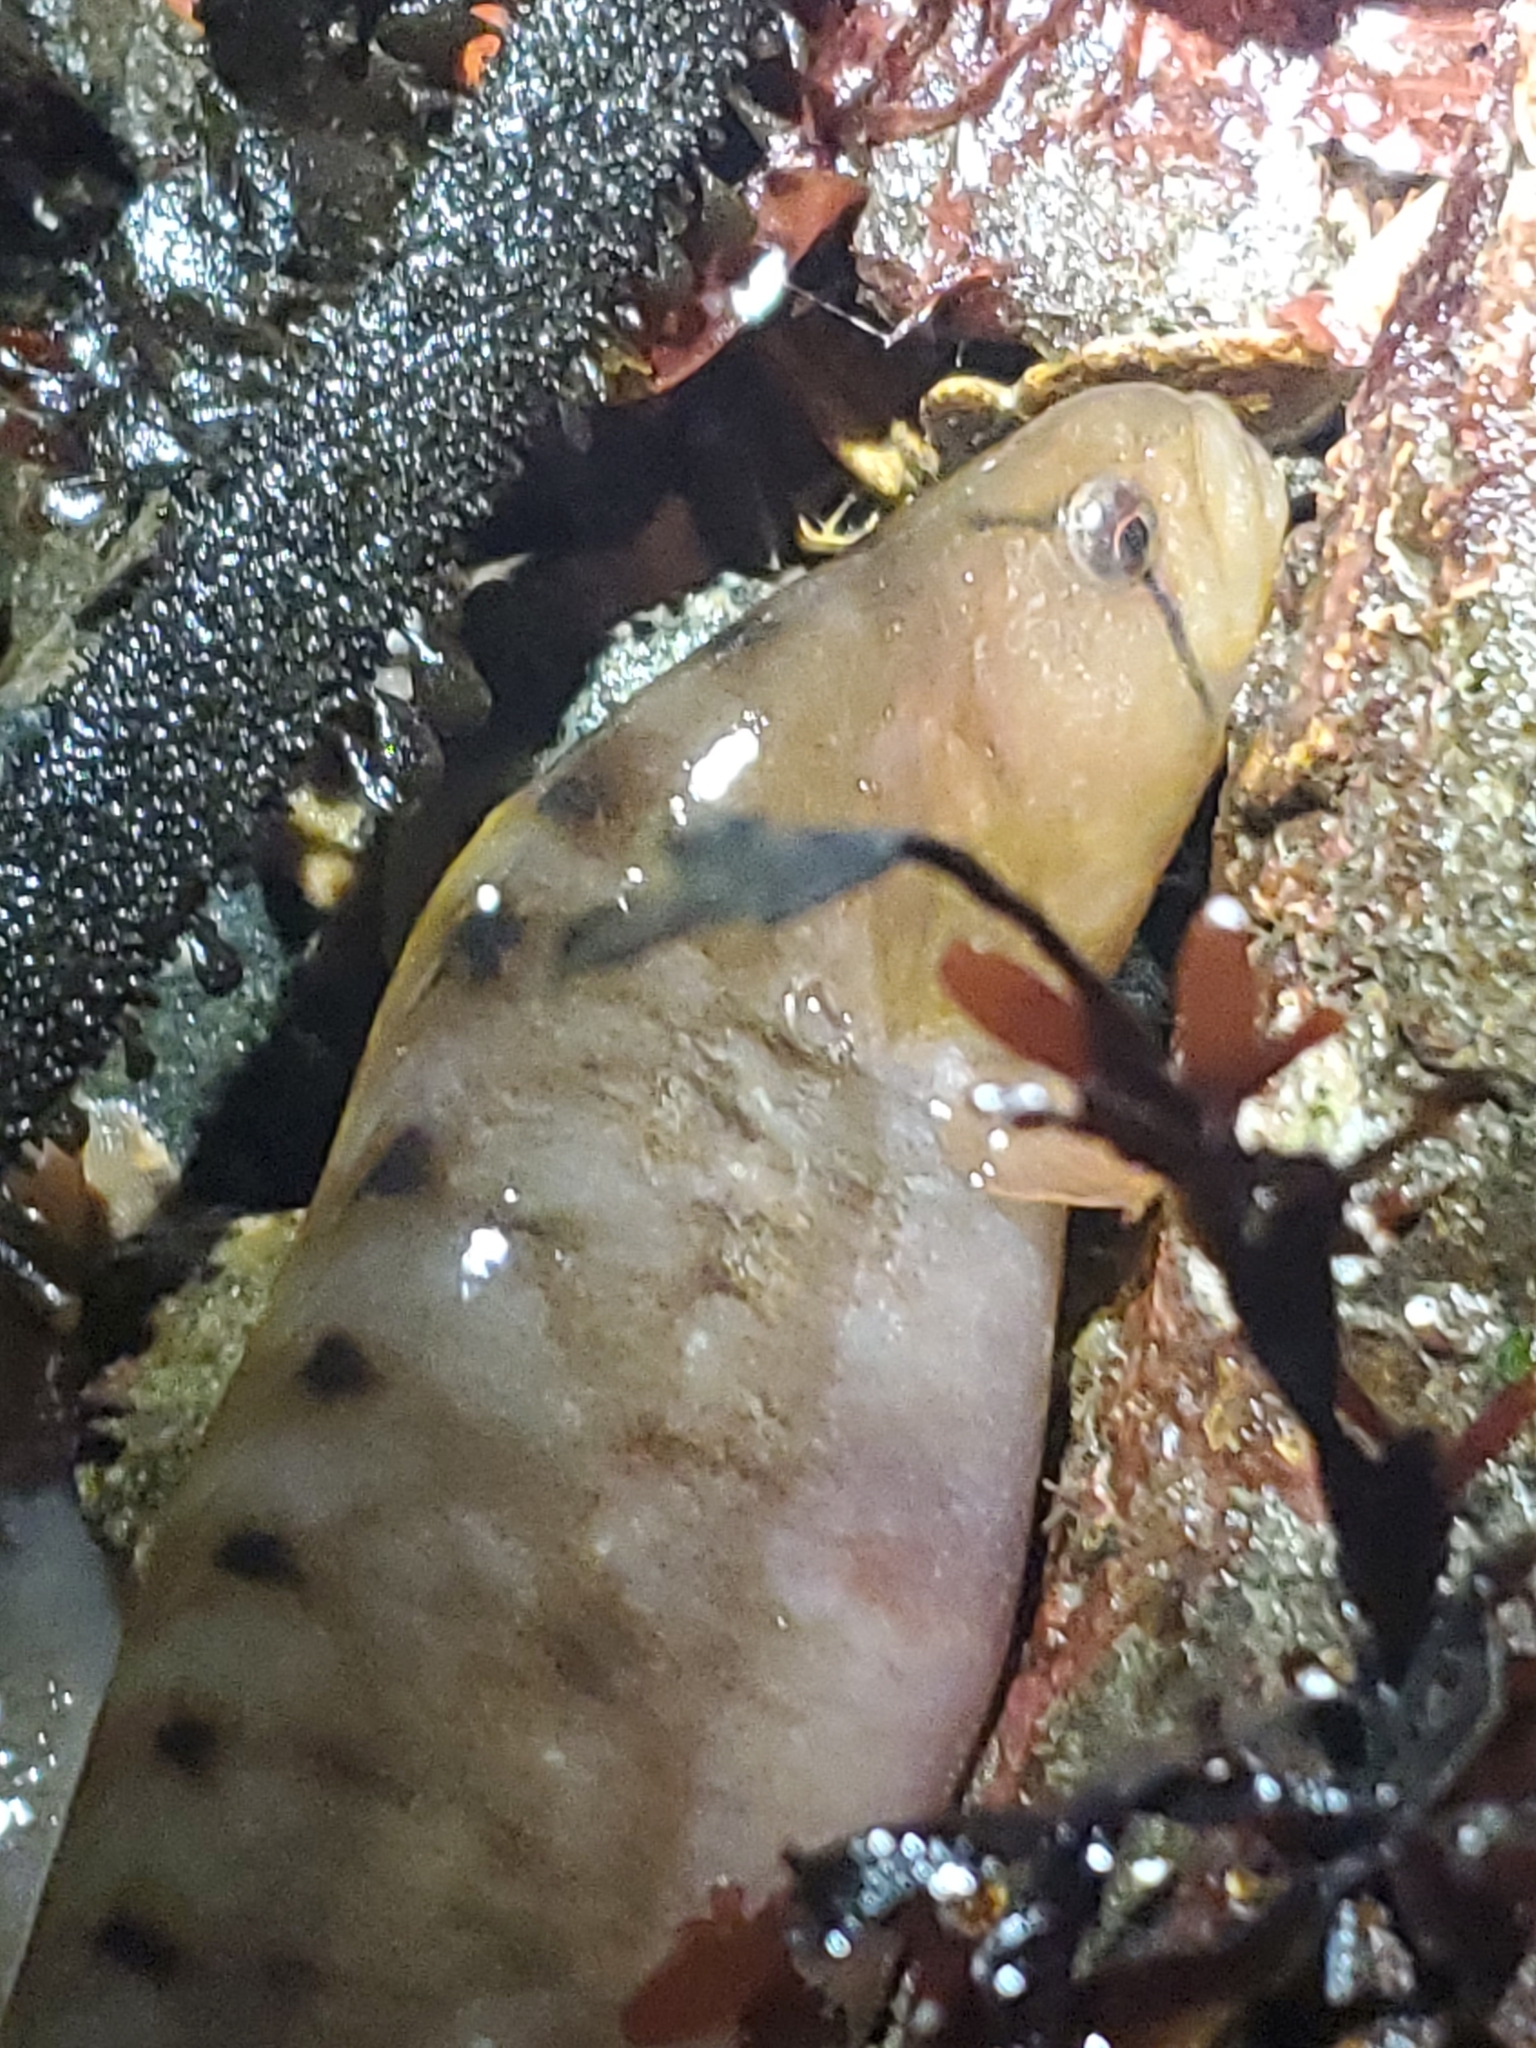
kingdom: Animalia
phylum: Chordata
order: Perciformes
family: Pholidae
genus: Apodichthys
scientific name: Apodichthys flavidus
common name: Penpoint gunnel
